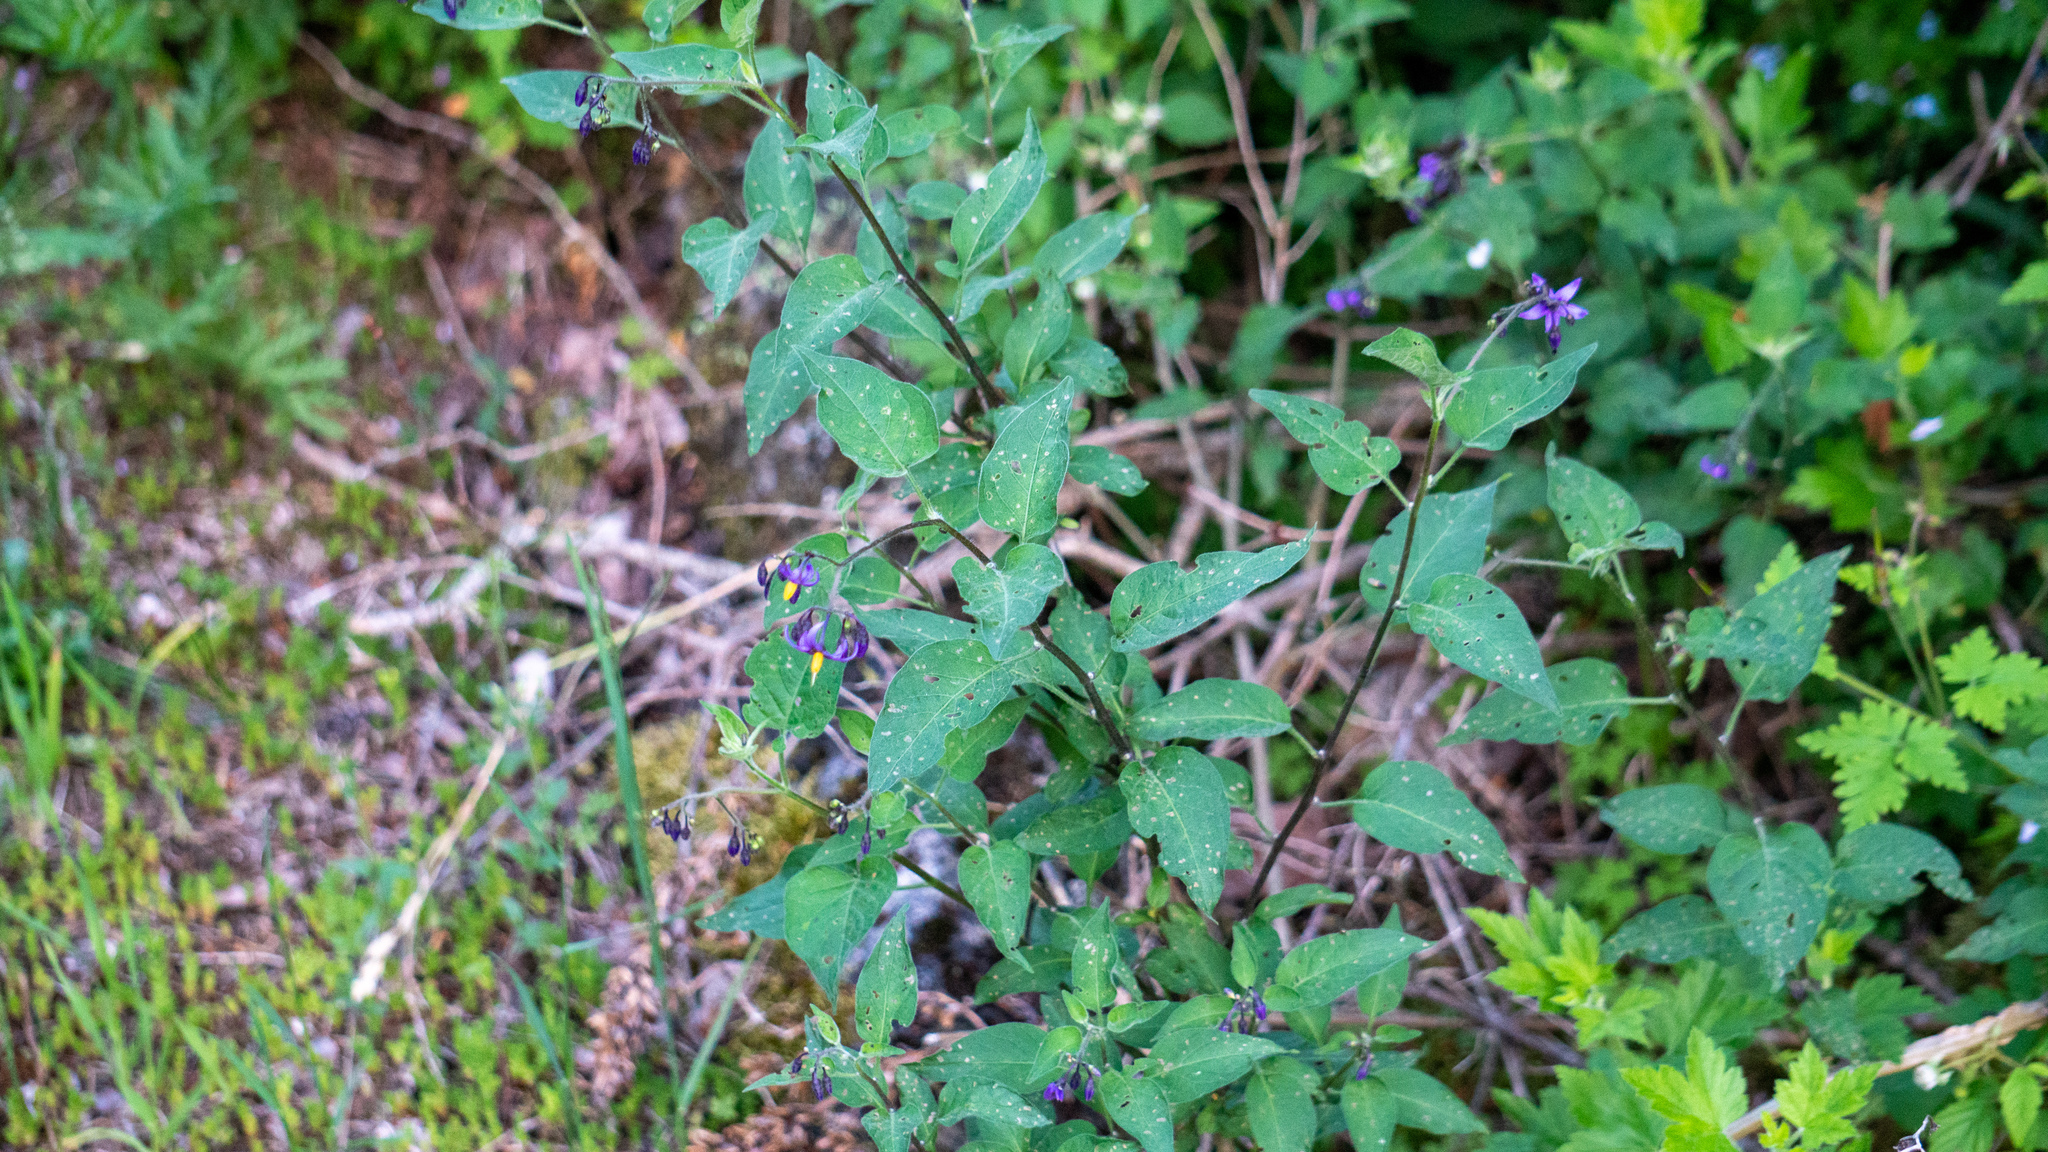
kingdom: Plantae
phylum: Tracheophyta
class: Magnoliopsida
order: Solanales
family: Solanaceae
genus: Solanum
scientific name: Solanum dulcamara
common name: Climbing nightshade
